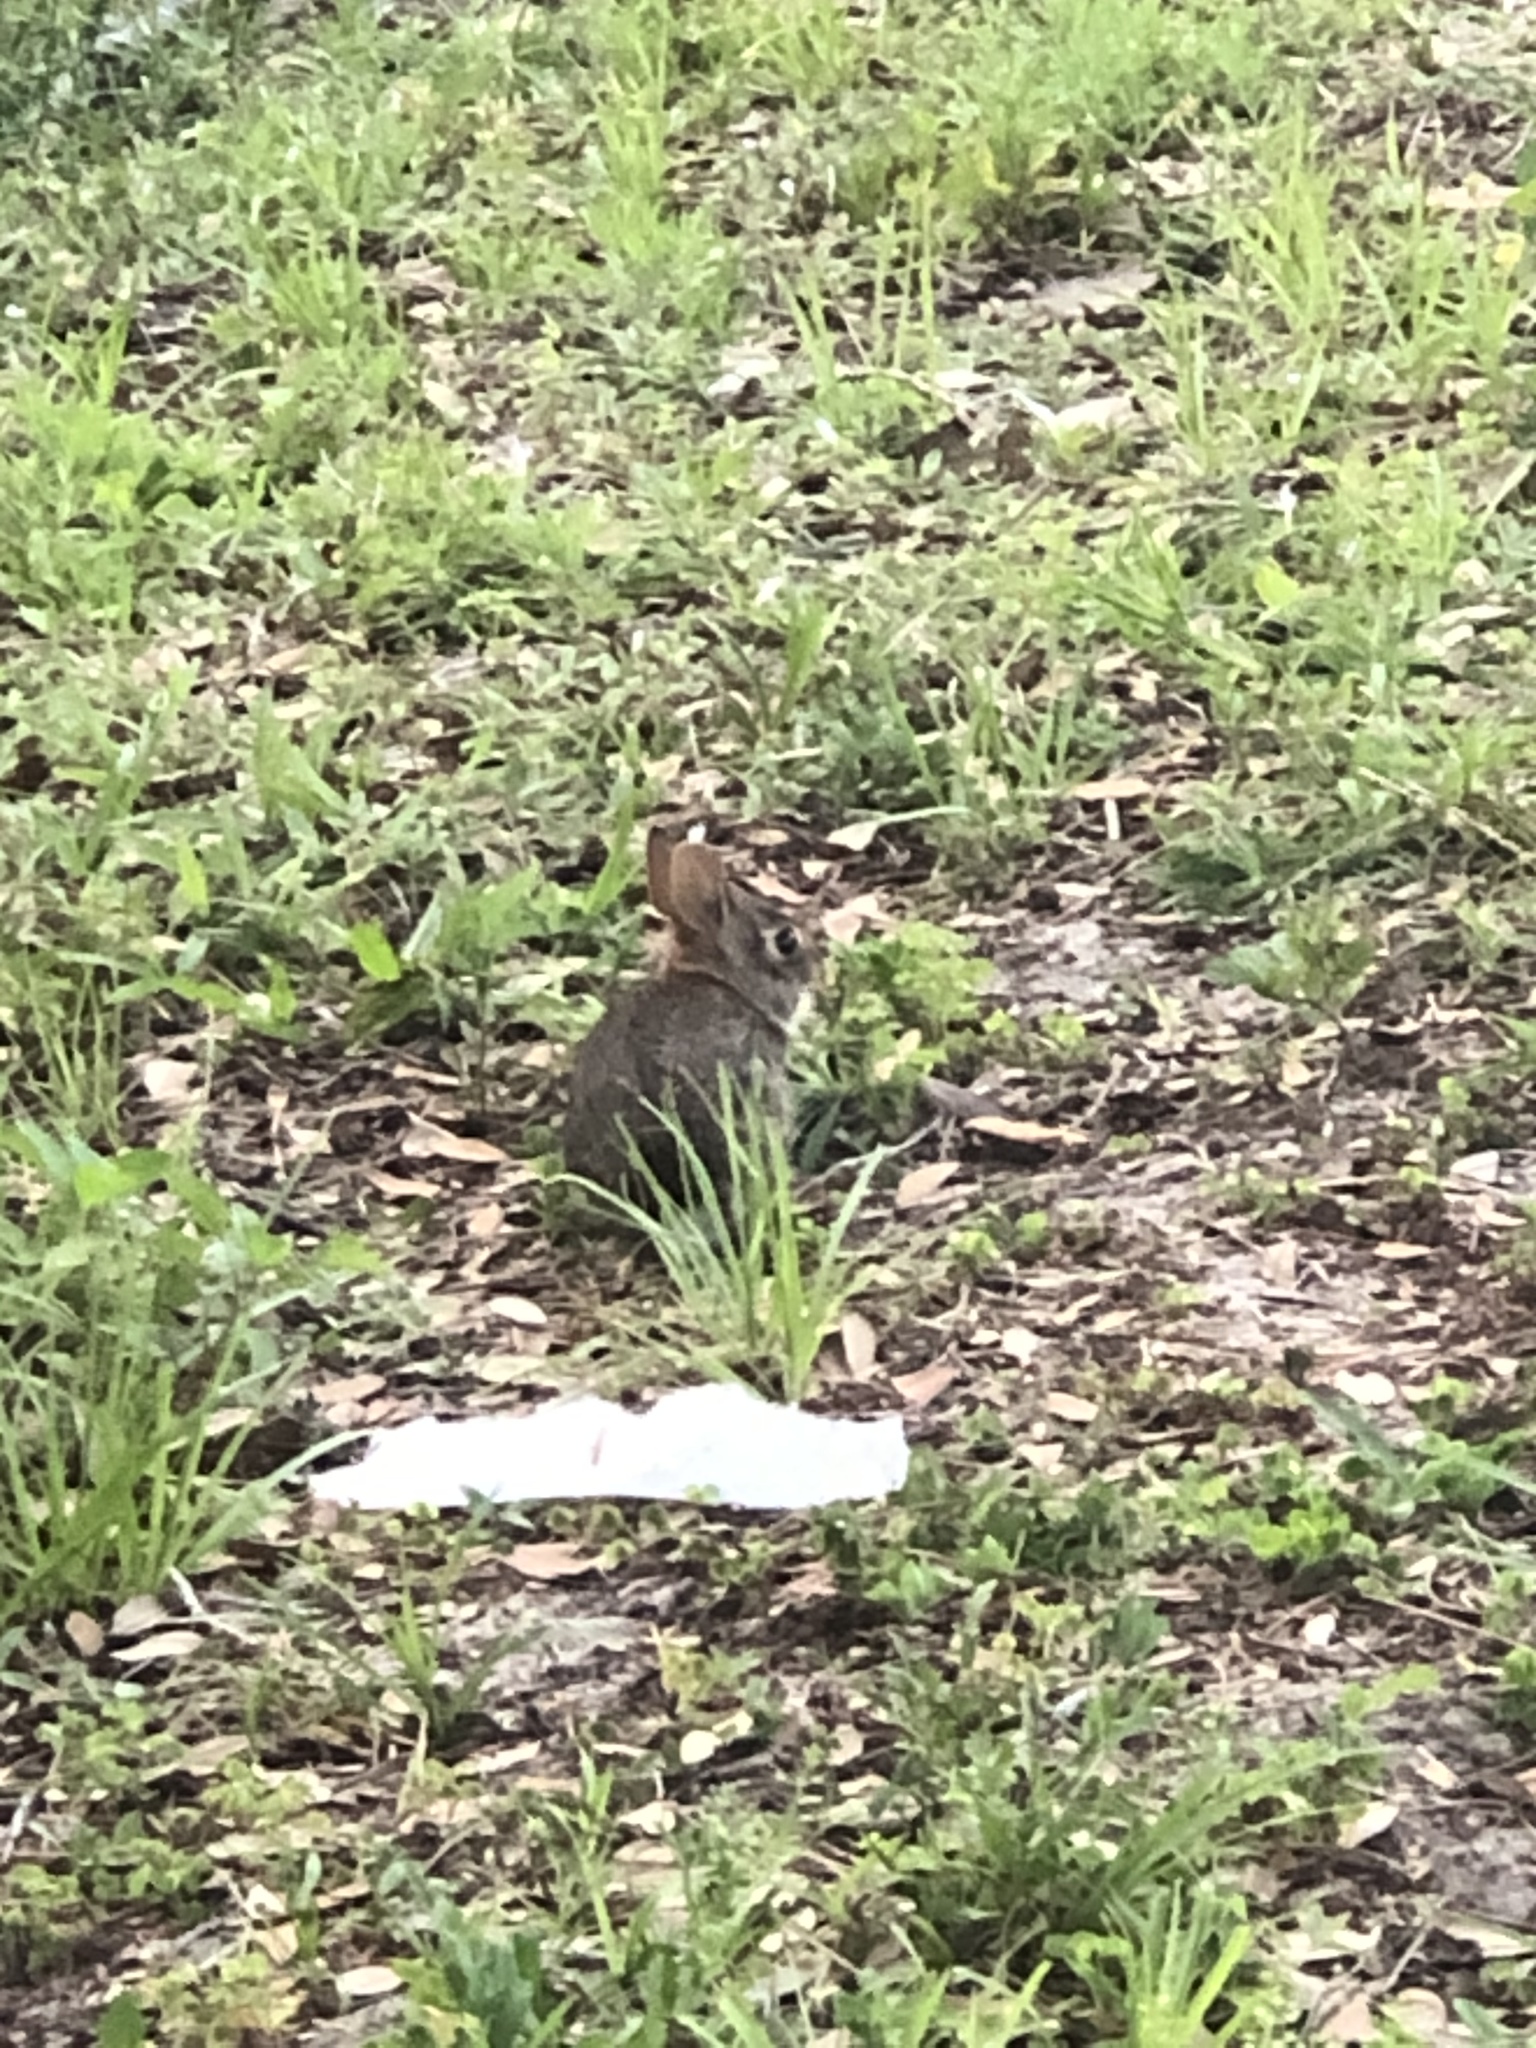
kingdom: Animalia
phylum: Chordata
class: Mammalia
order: Lagomorpha
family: Leporidae
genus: Sylvilagus
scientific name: Sylvilagus floridanus
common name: Eastern cottontail
